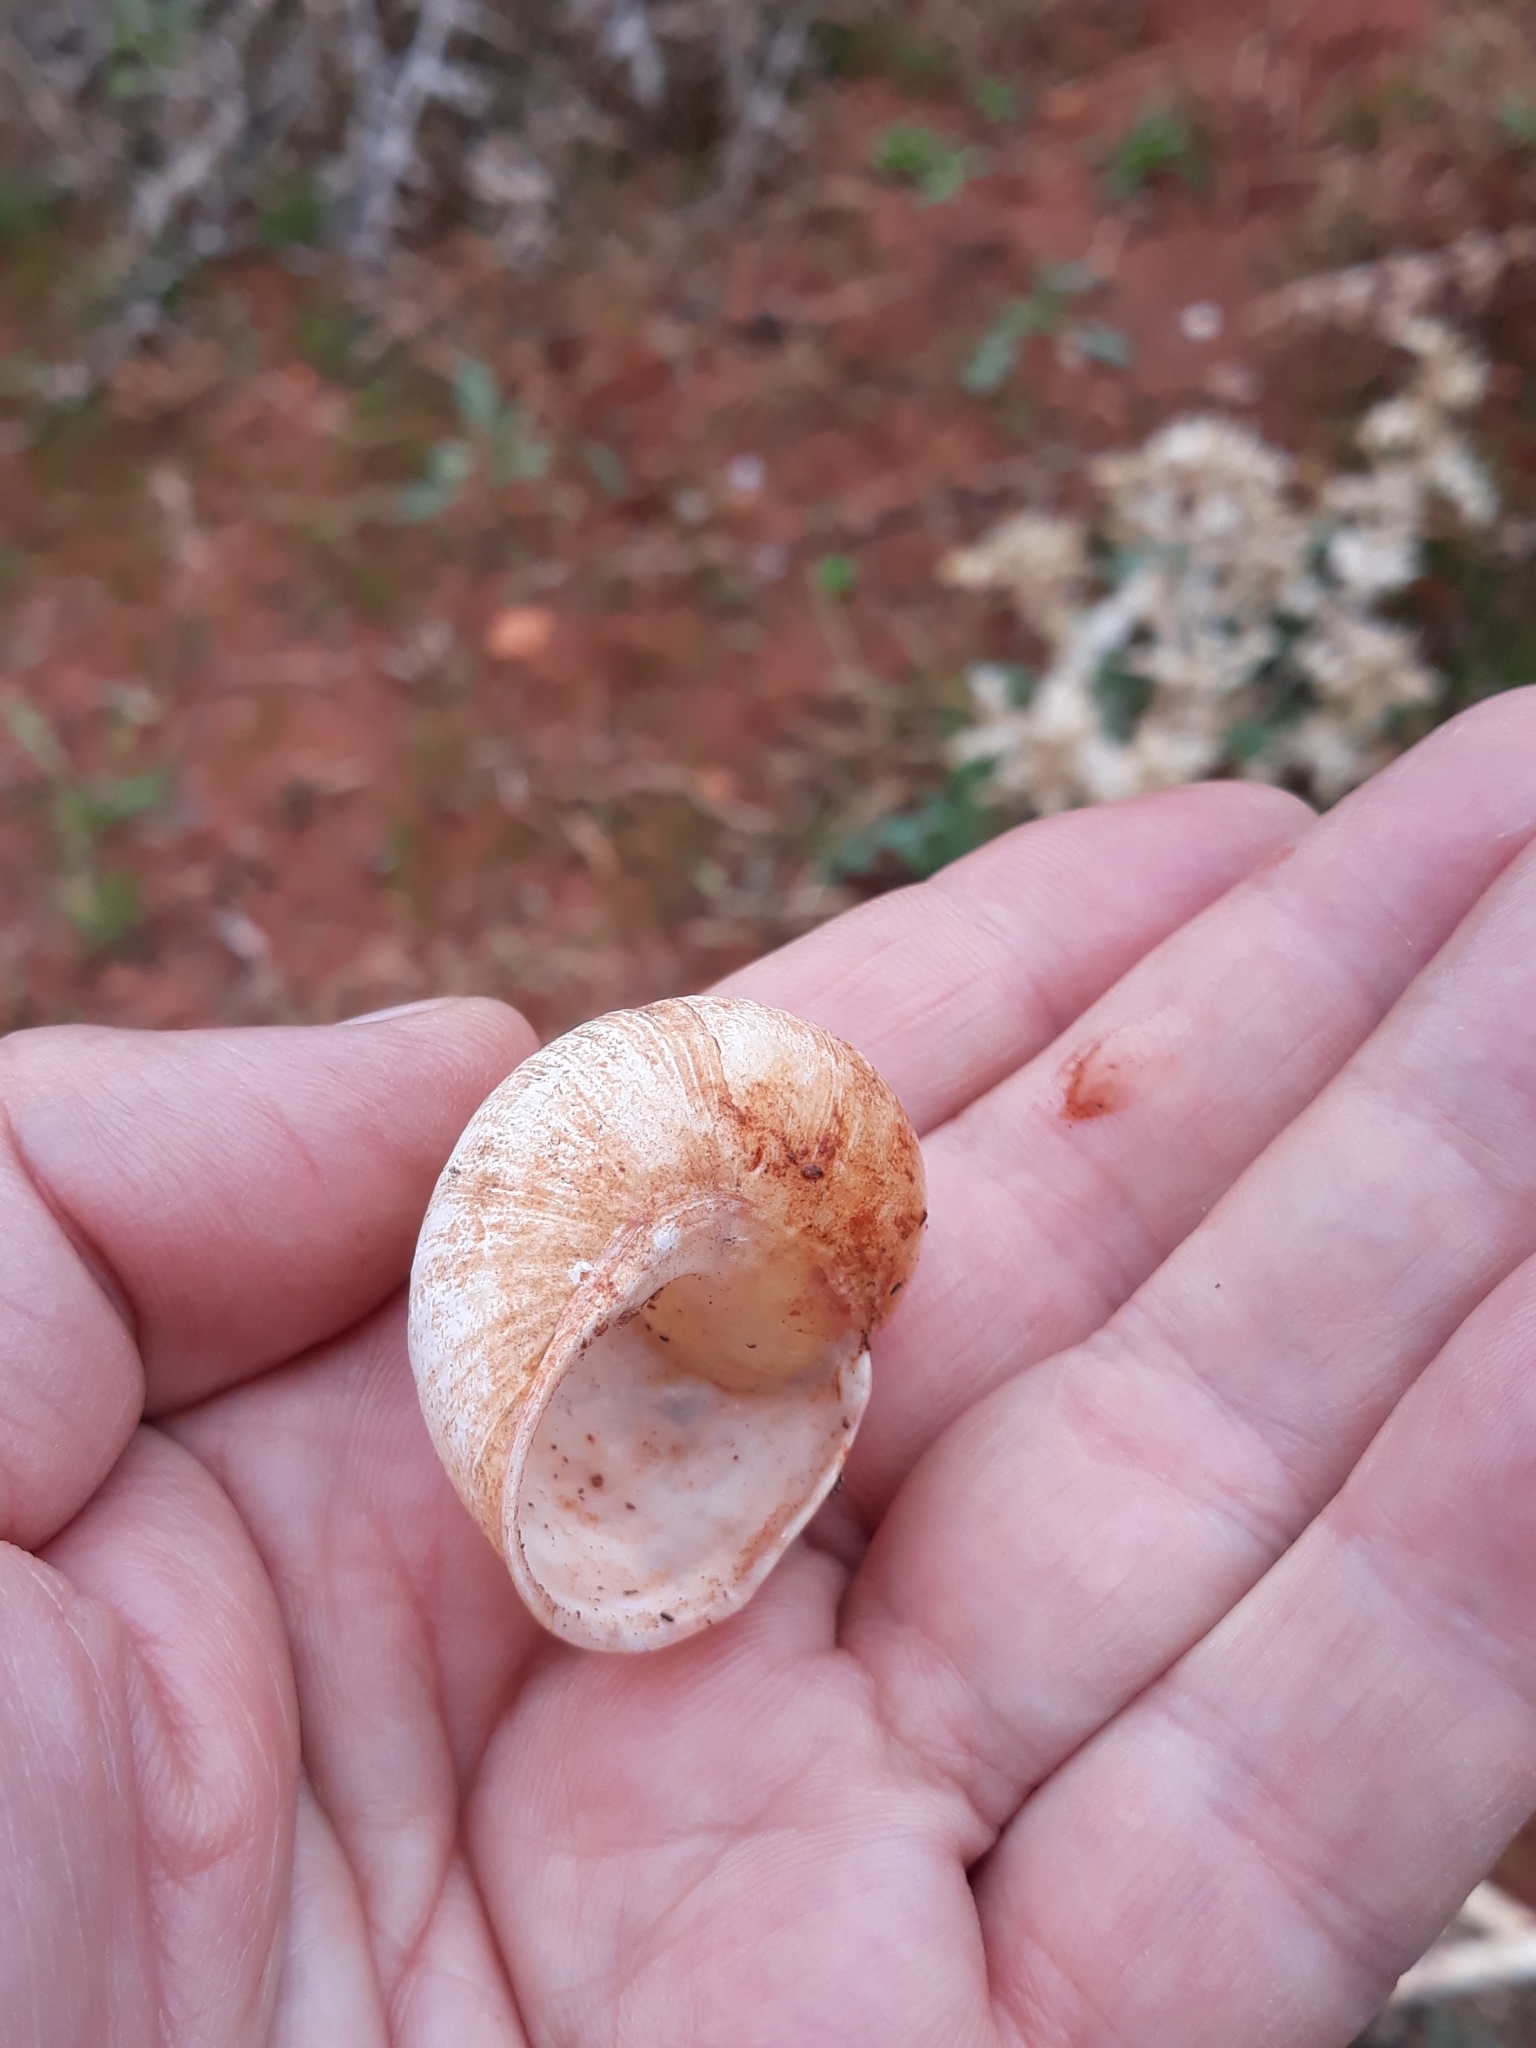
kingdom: Animalia
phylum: Mollusca
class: Gastropoda
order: Stylommatophora
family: Helicidae
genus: Cornu
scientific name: Cornu aspersum
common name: Brown garden snail
